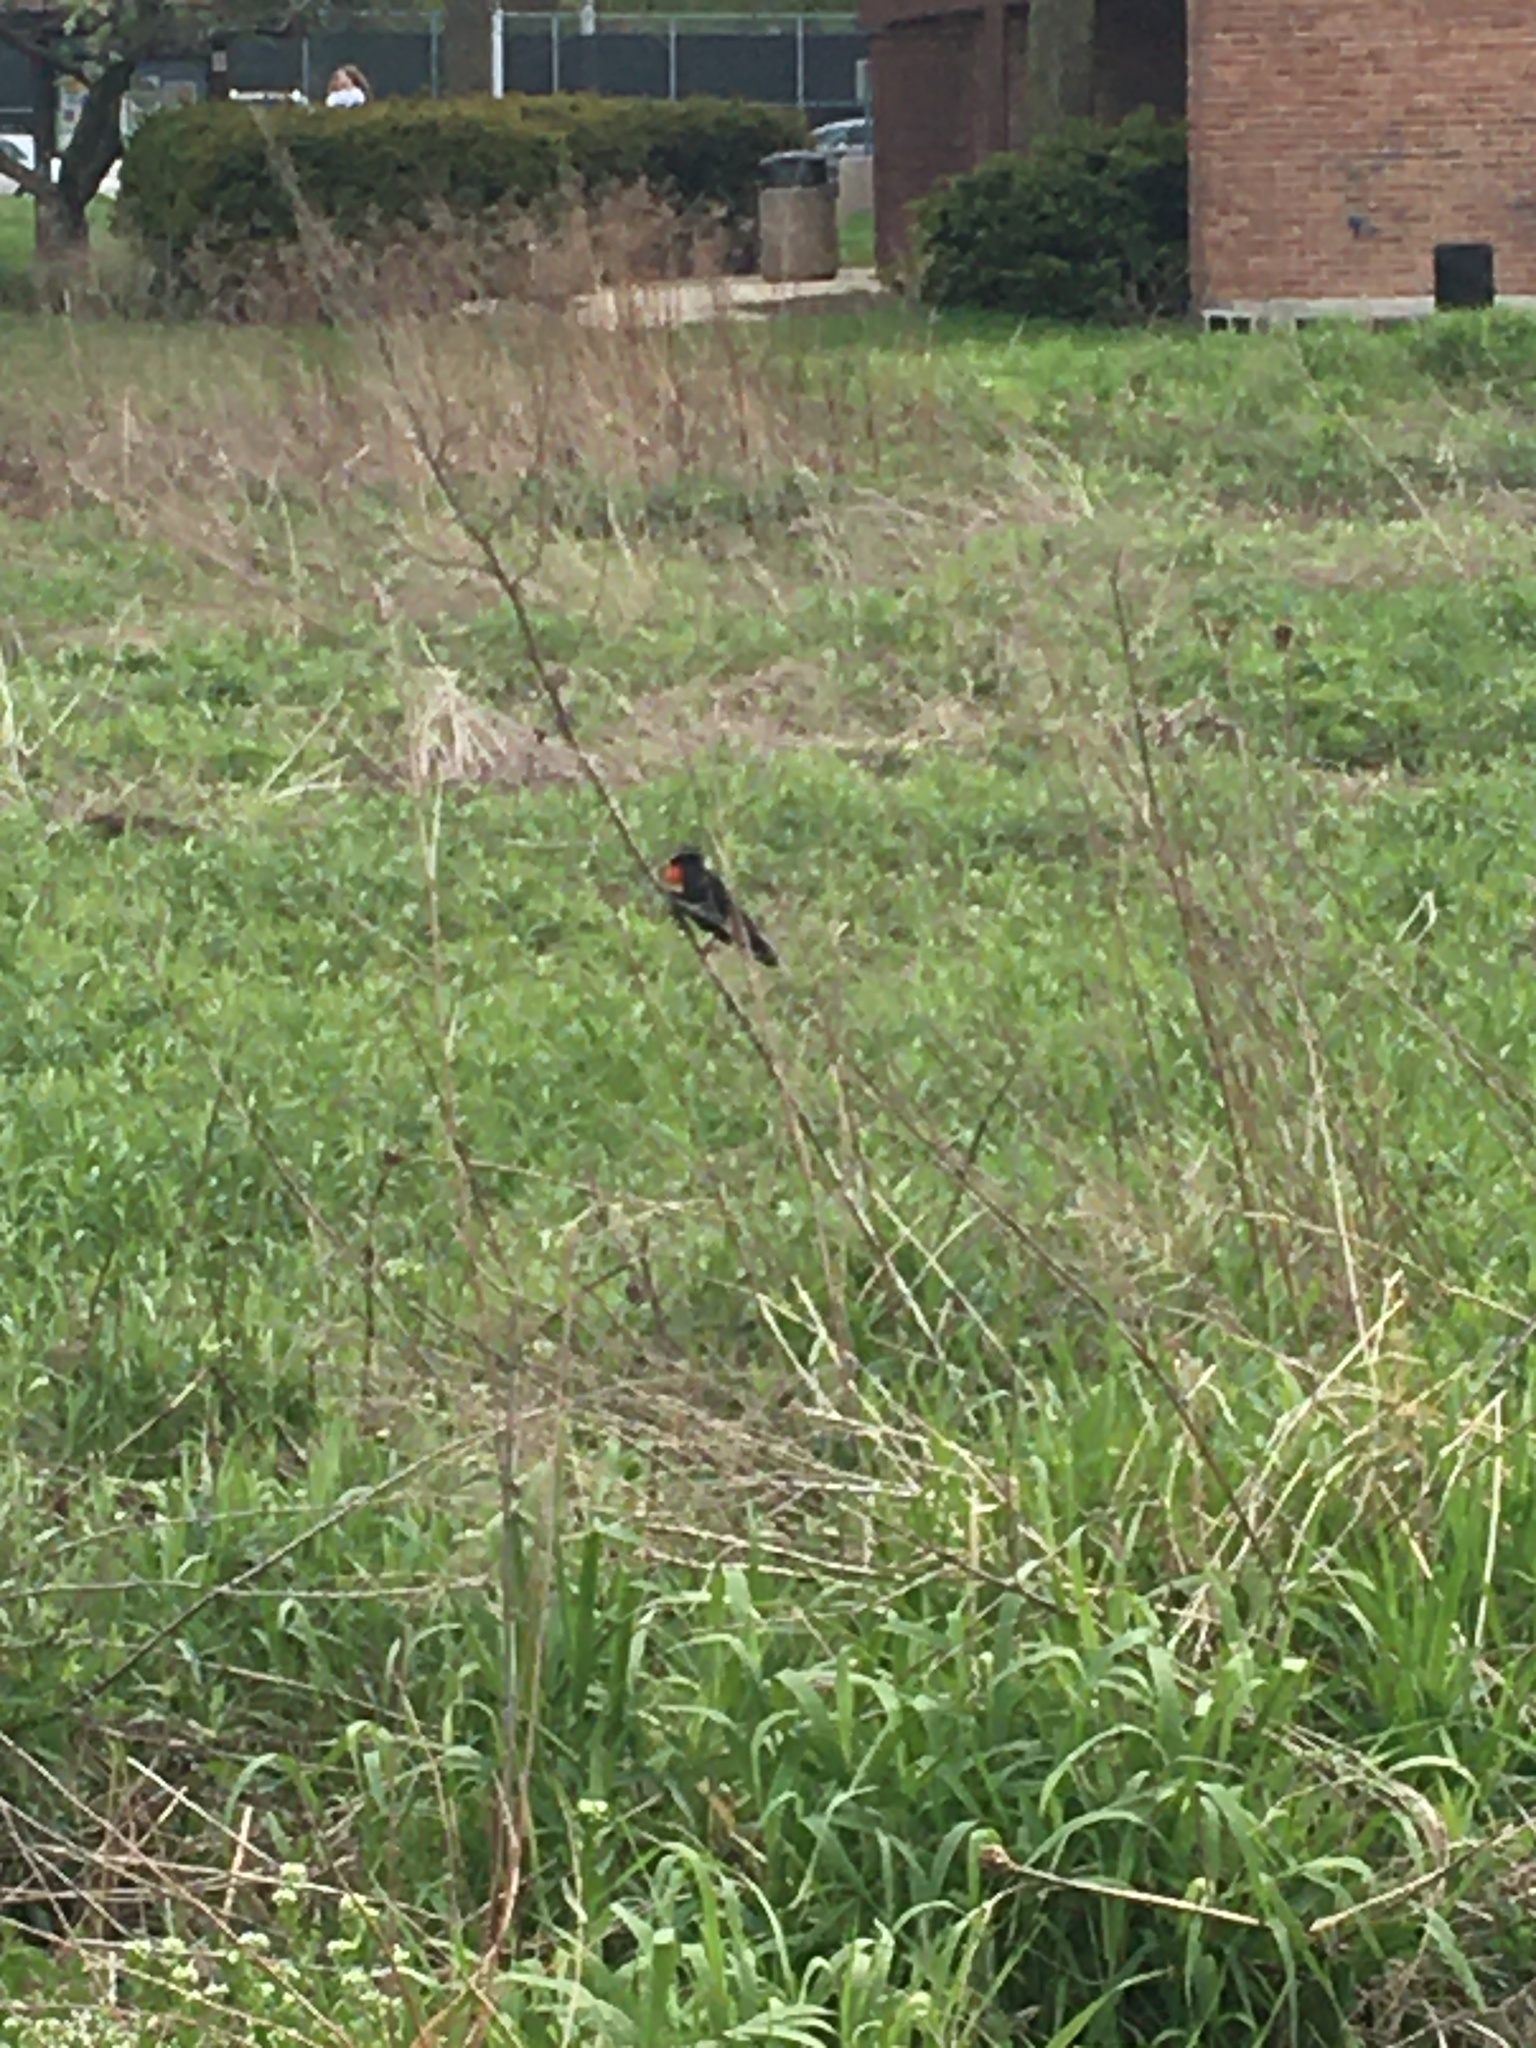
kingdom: Animalia
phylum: Chordata
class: Aves
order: Passeriformes
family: Icteridae
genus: Agelaius
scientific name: Agelaius phoeniceus
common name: Red-winged blackbird
